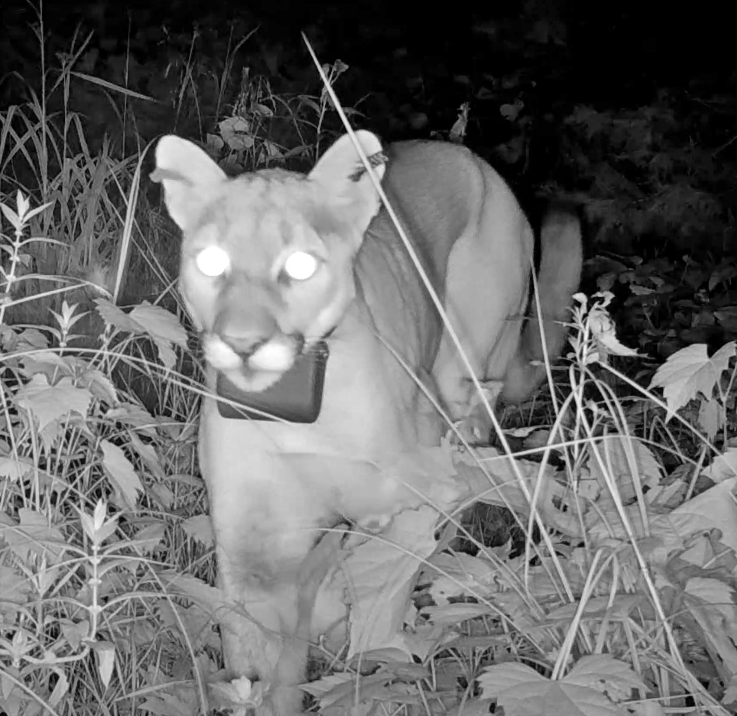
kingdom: Animalia
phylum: Chordata
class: Mammalia
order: Carnivora
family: Felidae
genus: Puma
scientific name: Puma concolor
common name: Puma
